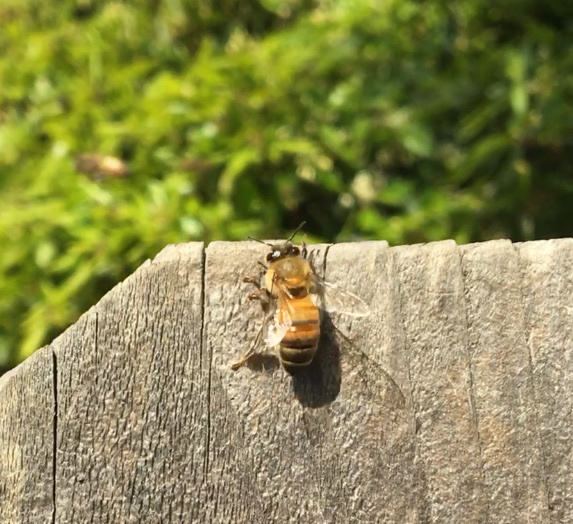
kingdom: Animalia
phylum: Arthropoda
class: Insecta
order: Hymenoptera
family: Apidae
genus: Apis
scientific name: Apis mellifera
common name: Honey bee
